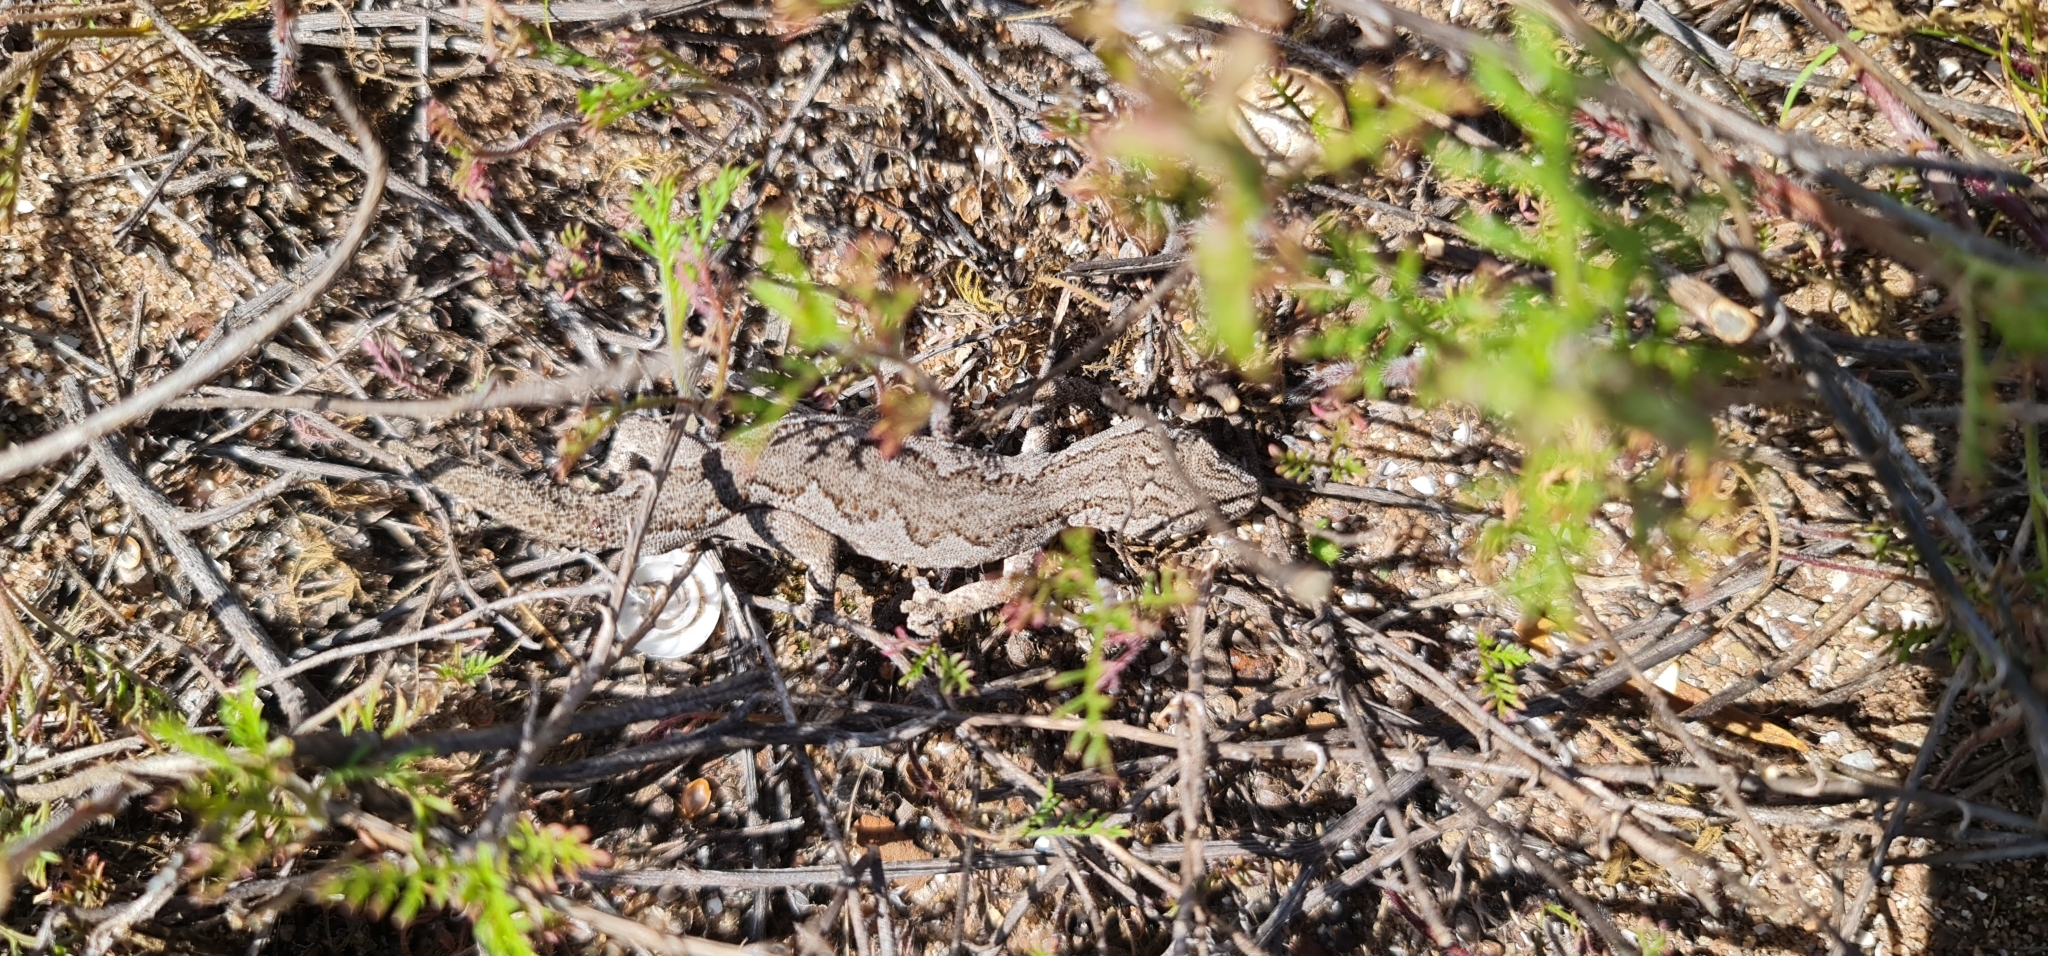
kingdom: Animalia
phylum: Chordata
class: Squamata
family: Diplodactylidae
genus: Strophurus
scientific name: Strophurus intermedius
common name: Eastern spiny-tailed gecko
